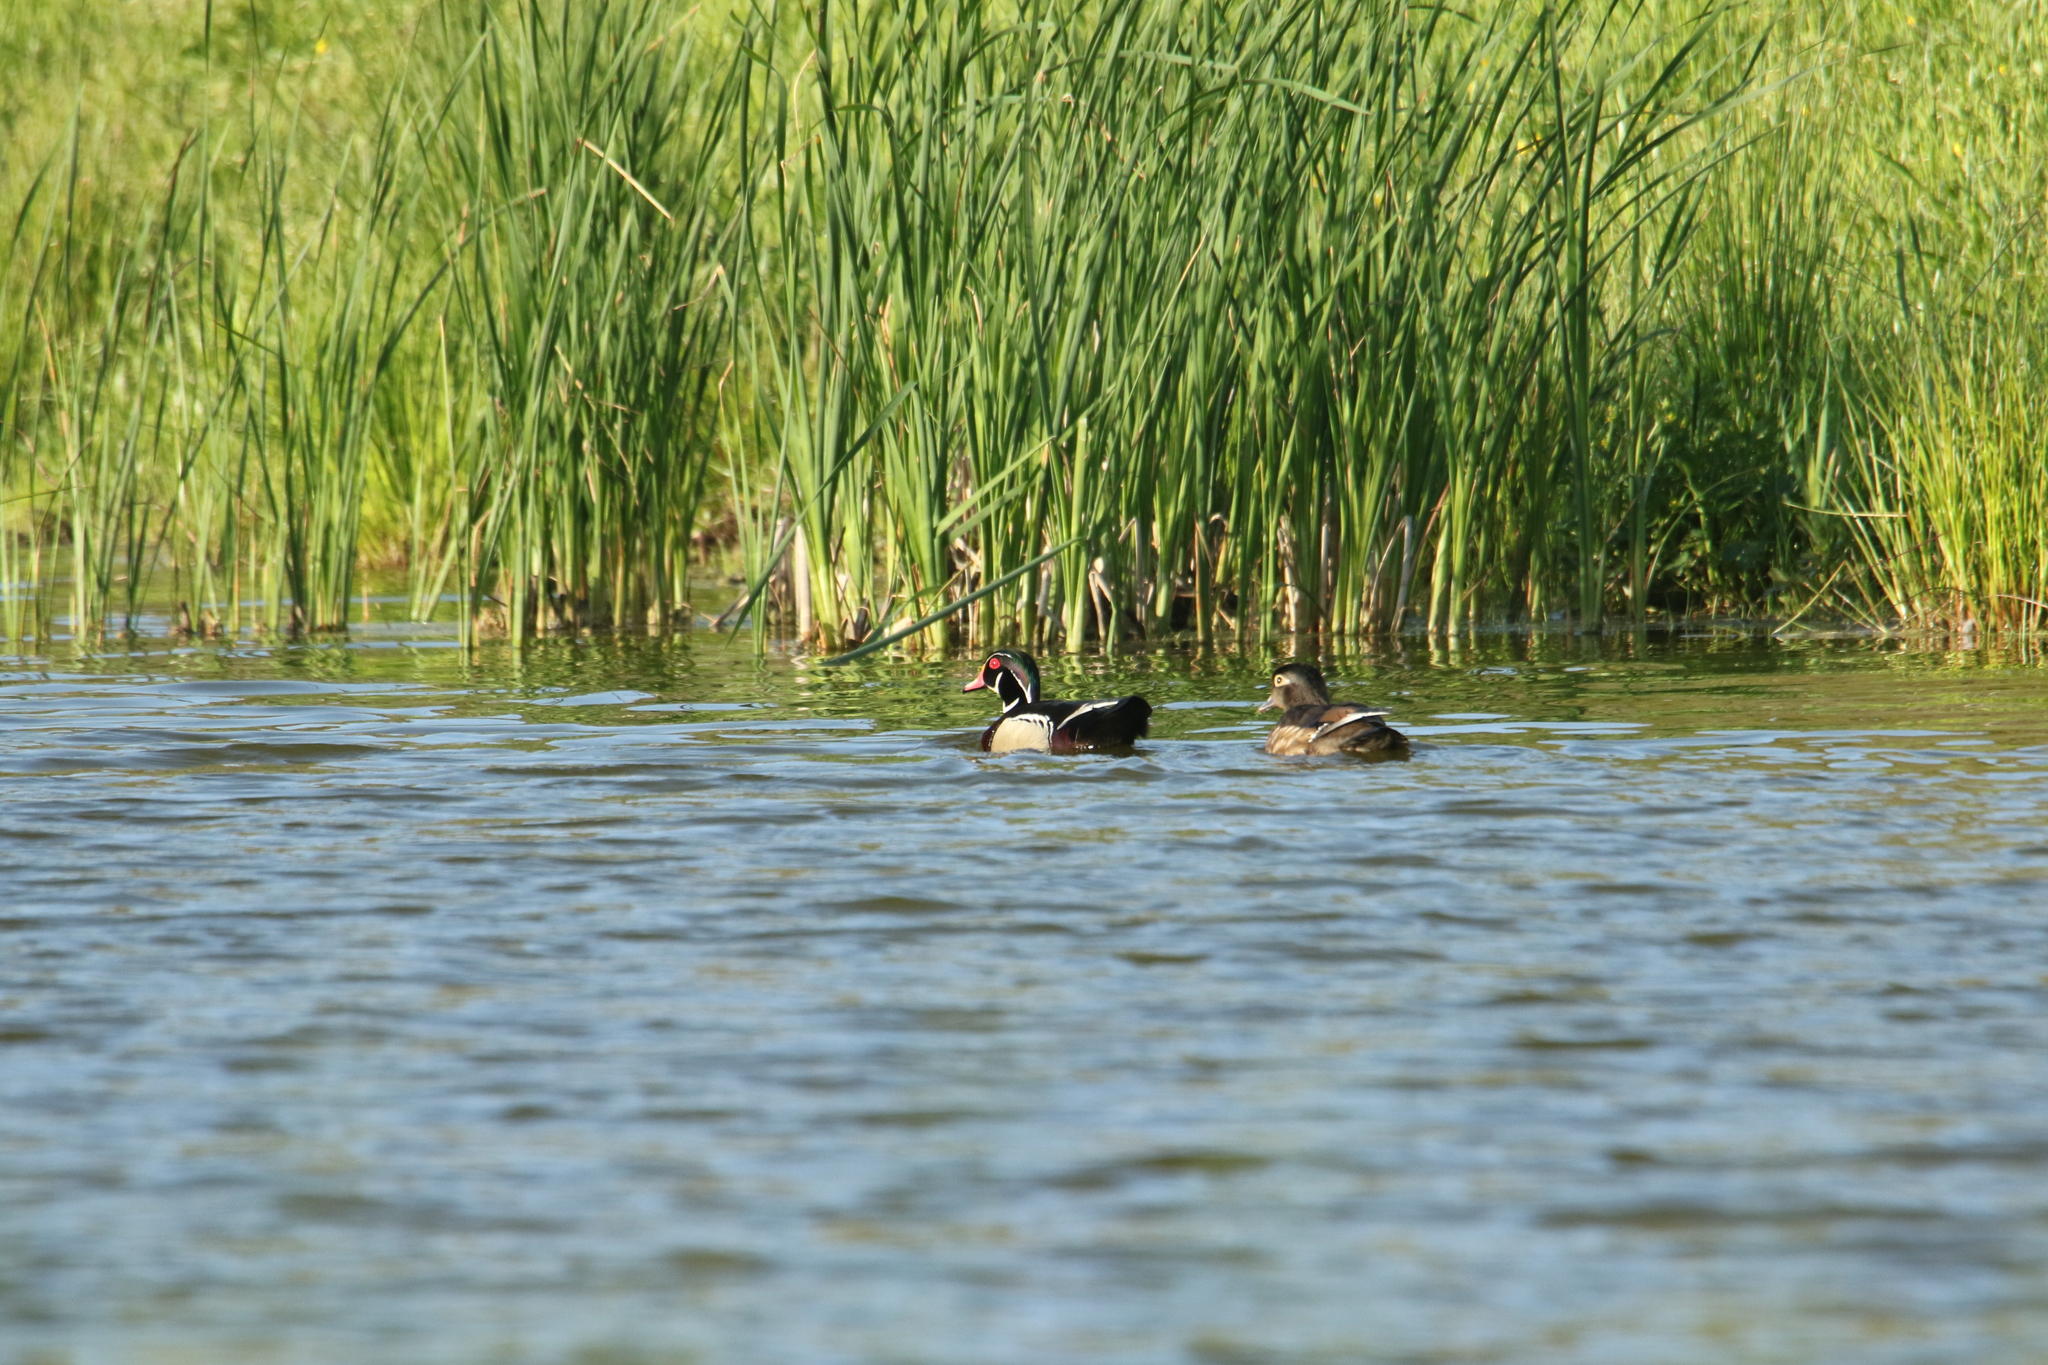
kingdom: Animalia
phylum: Chordata
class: Aves
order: Anseriformes
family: Anatidae
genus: Aix
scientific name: Aix sponsa
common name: Wood duck
